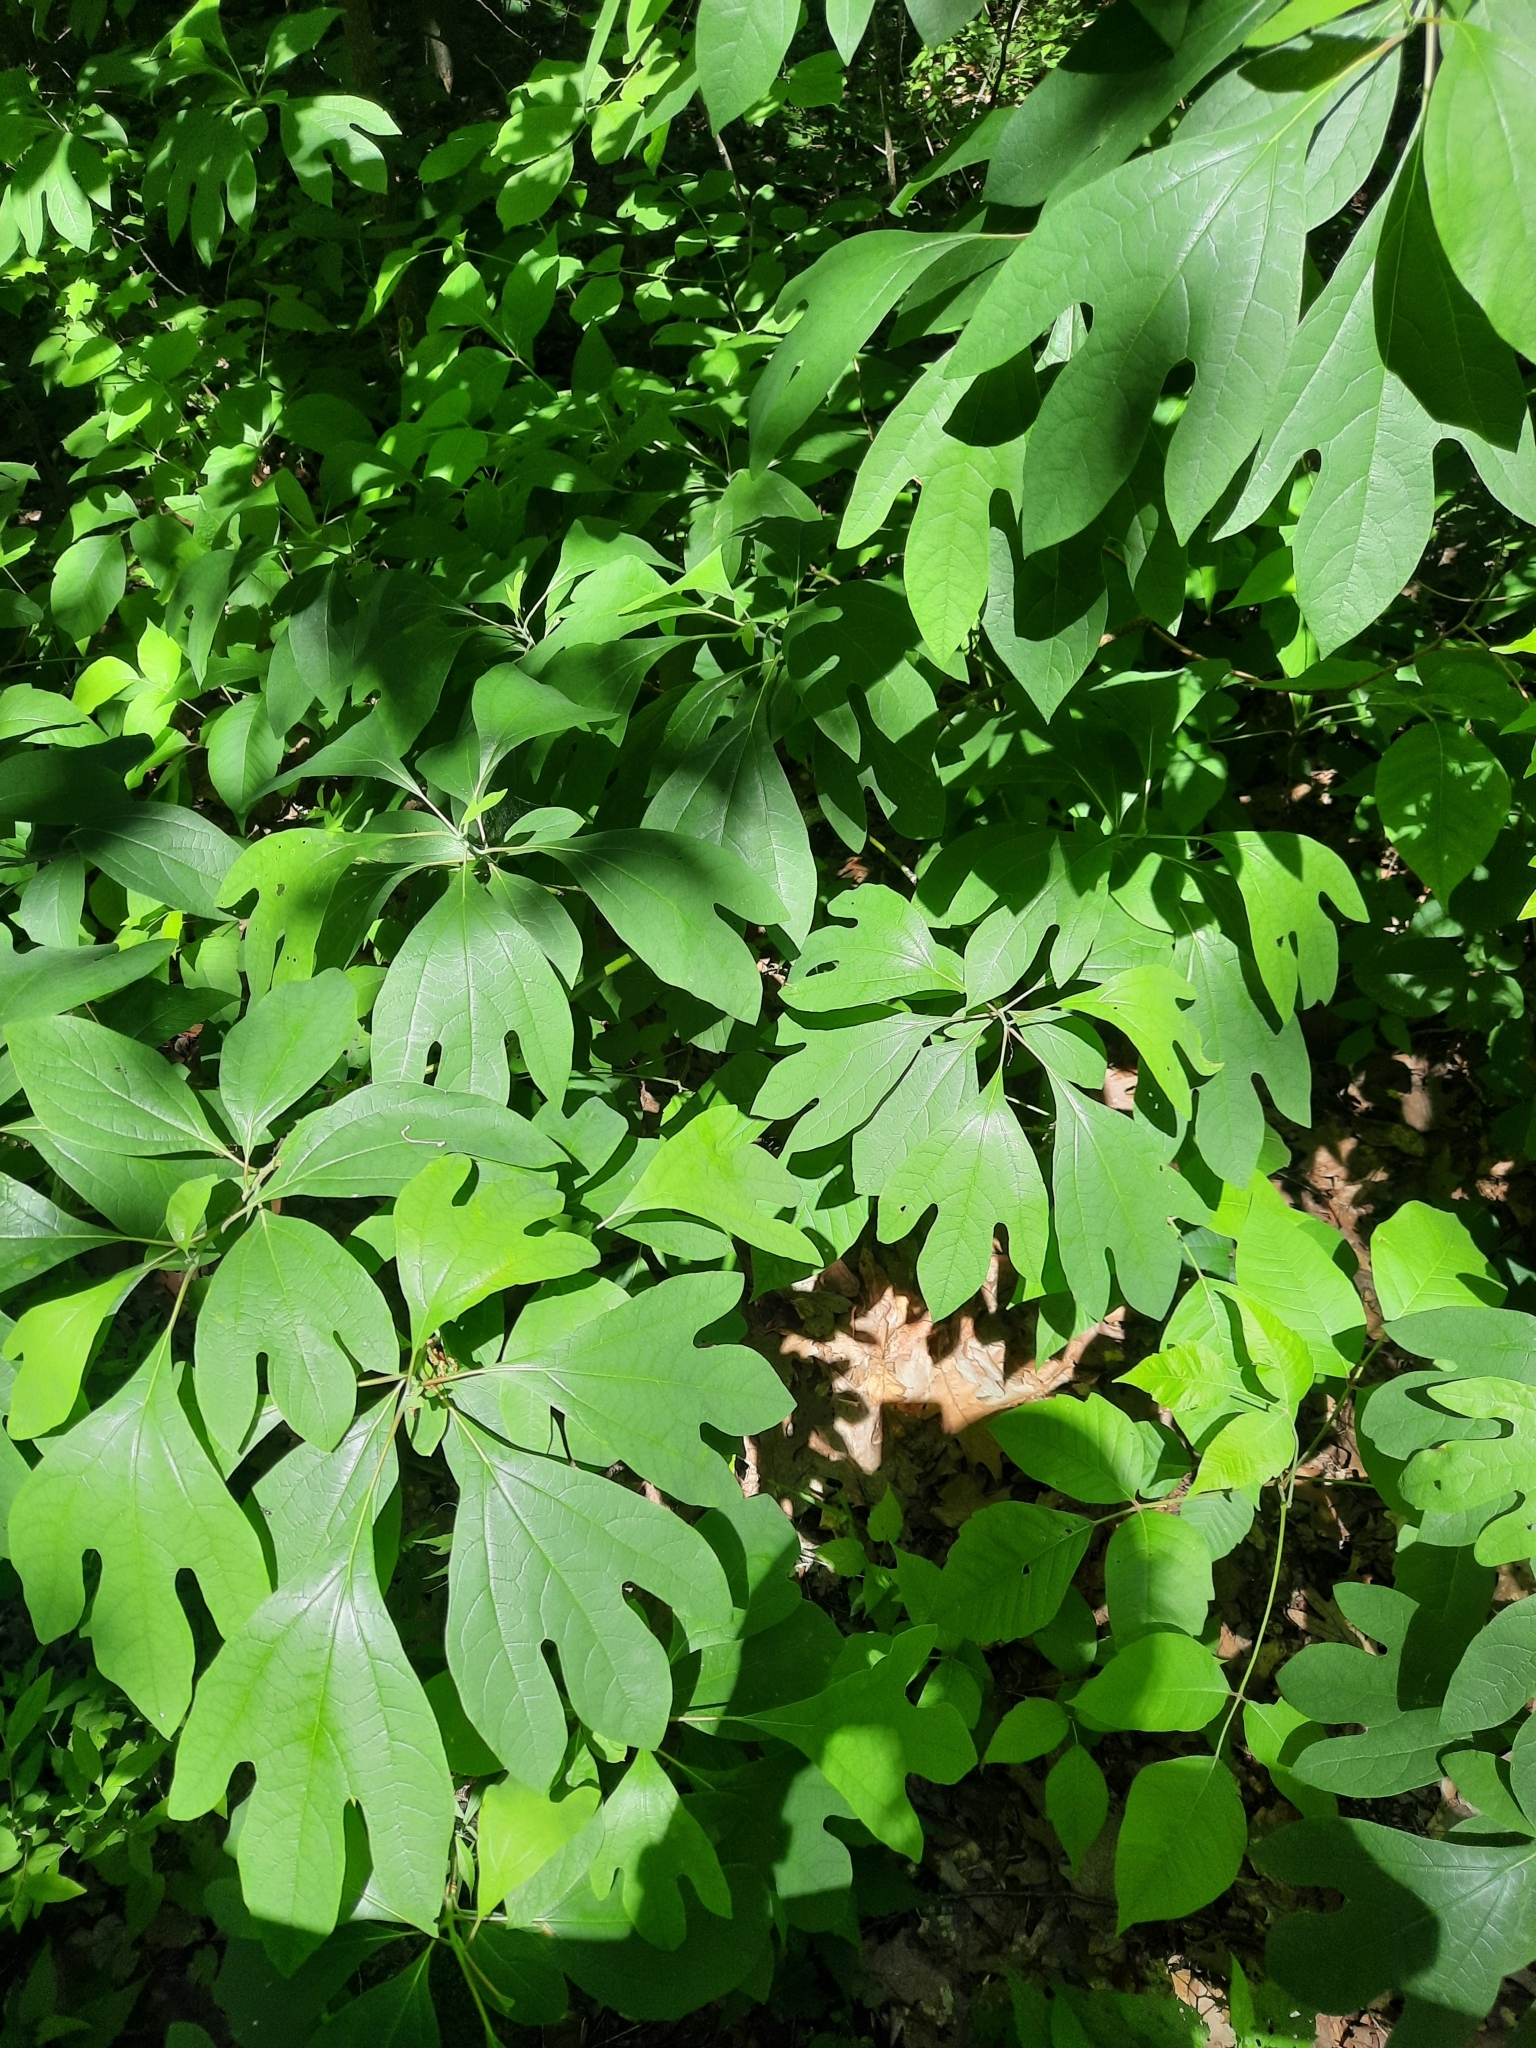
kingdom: Plantae
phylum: Tracheophyta
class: Magnoliopsida
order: Laurales
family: Lauraceae
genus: Sassafras
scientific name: Sassafras albidum
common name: Sassafras
